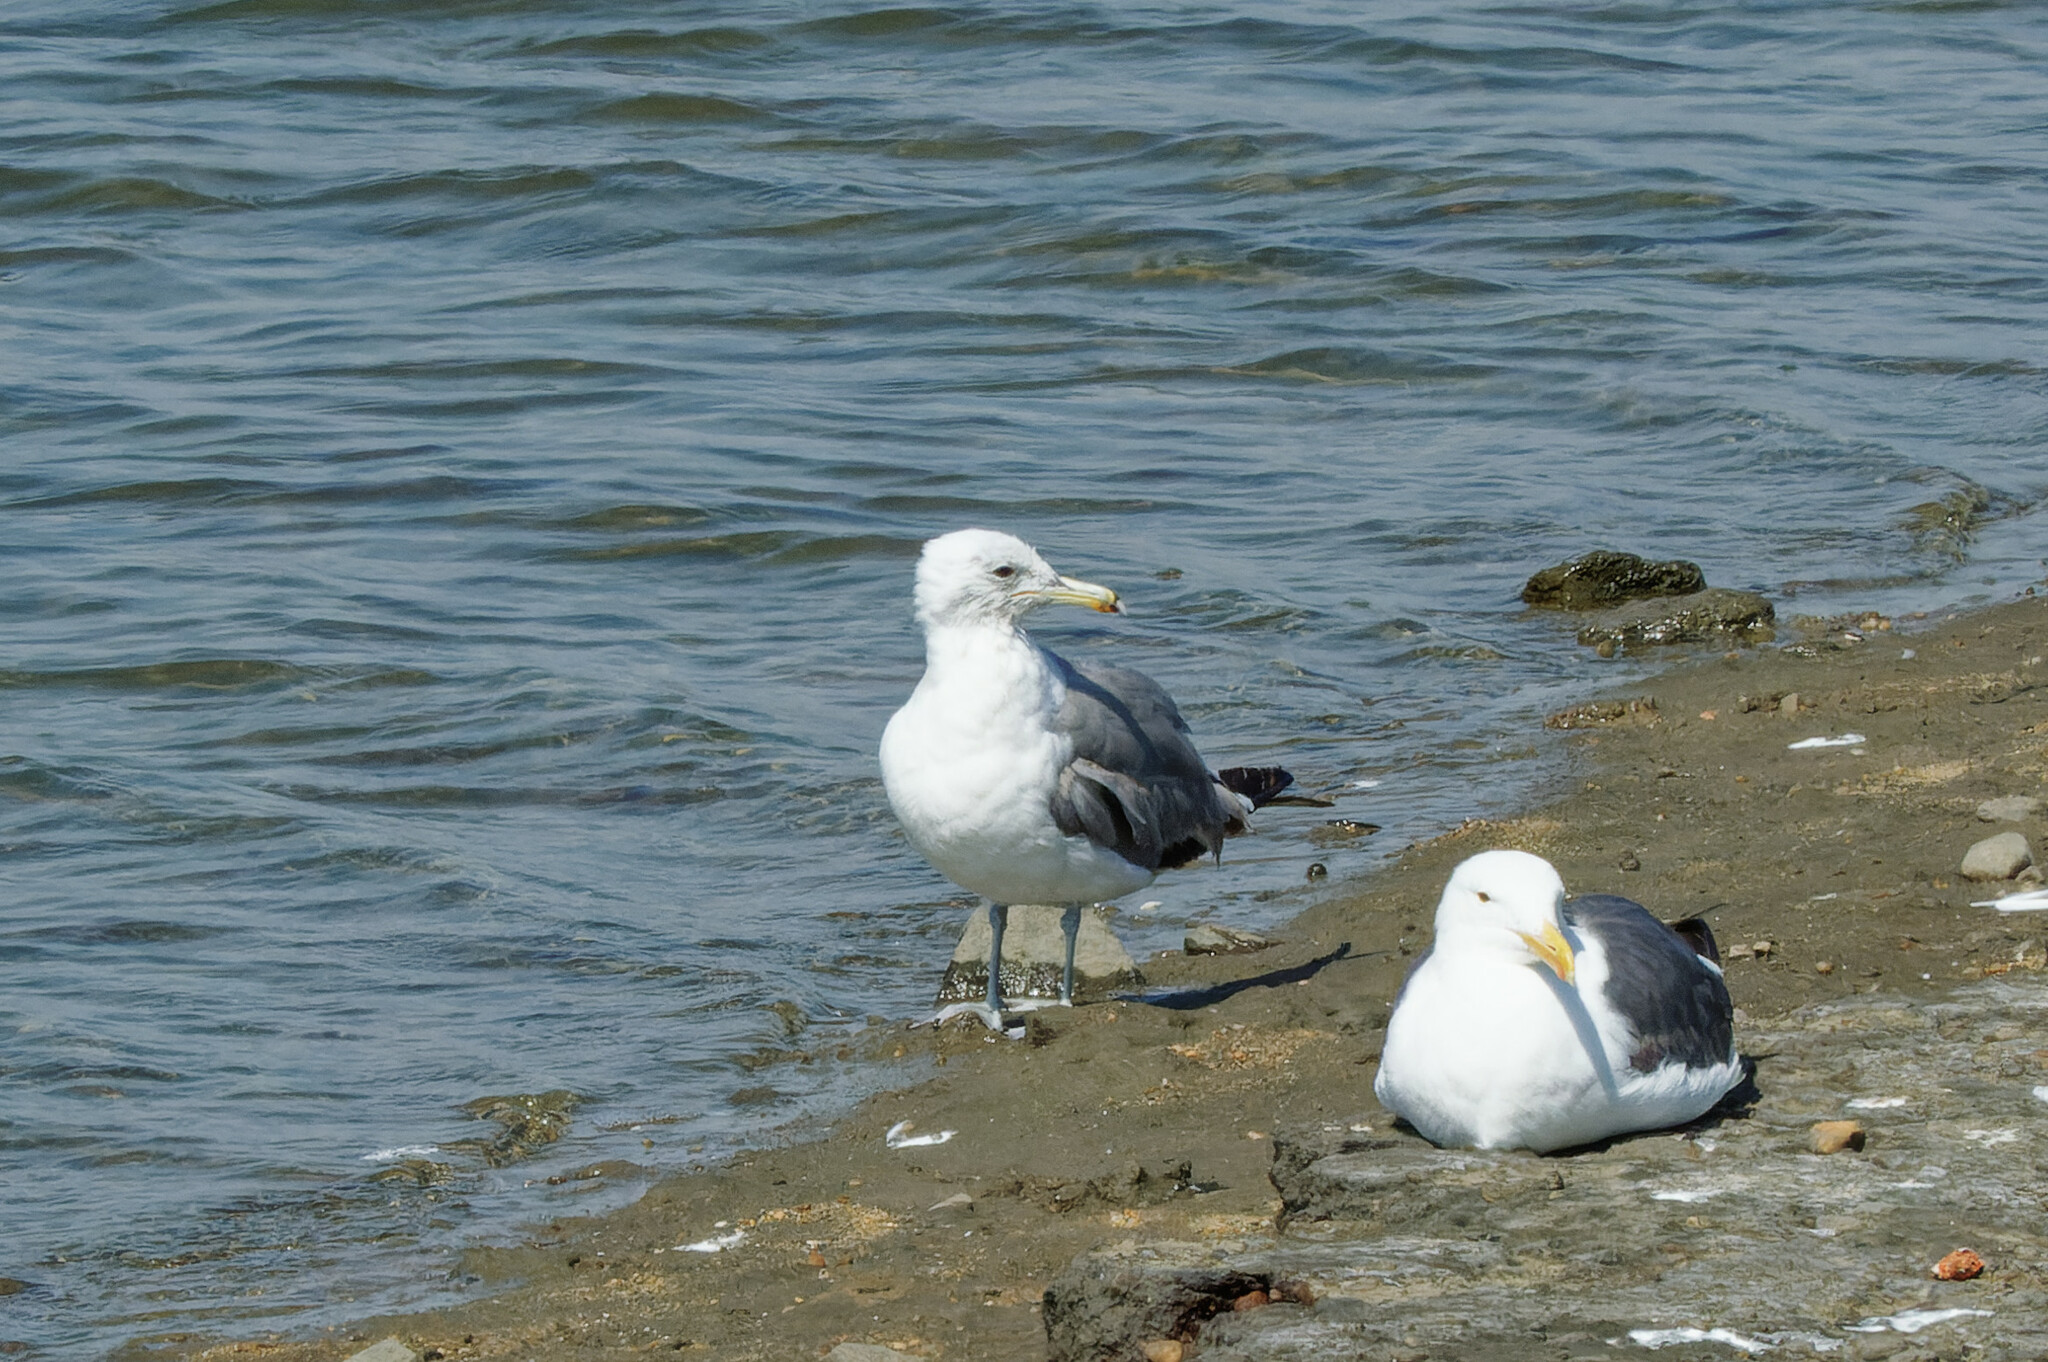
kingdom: Animalia
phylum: Chordata
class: Aves
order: Charadriiformes
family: Laridae
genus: Larus
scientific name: Larus californicus
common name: California gull
